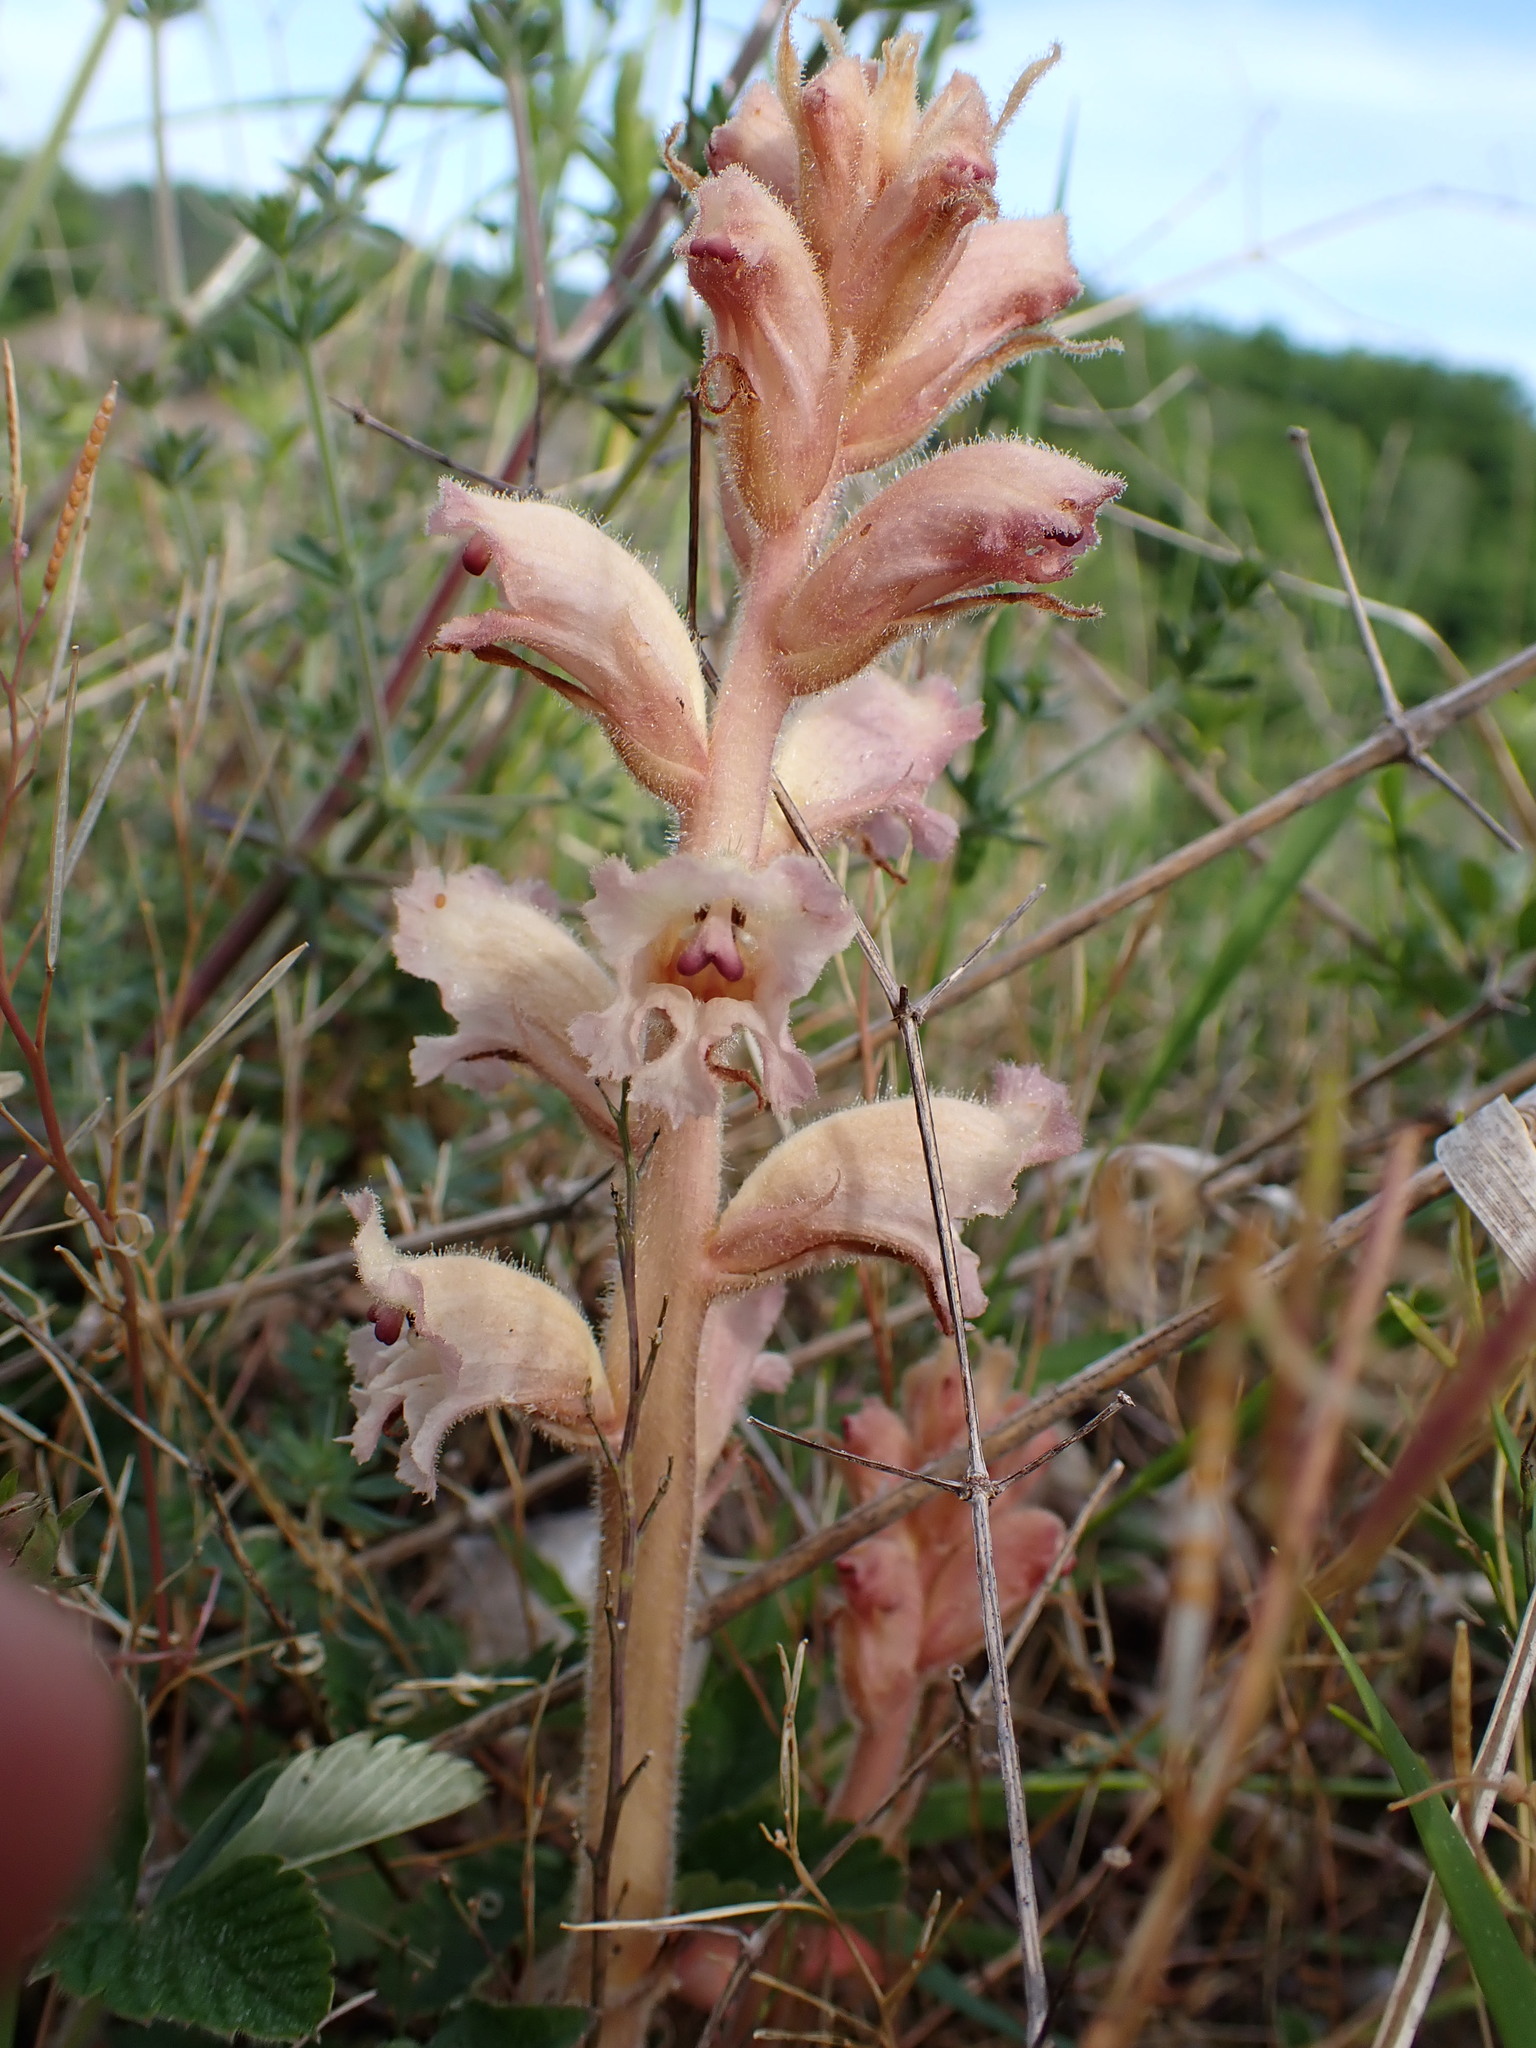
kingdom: Plantae
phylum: Tracheophyta
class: Magnoliopsida
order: Lamiales
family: Orobanchaceae
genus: Orobanche
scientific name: Orobanche caryophyllacea
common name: Bedstraw broomrape
